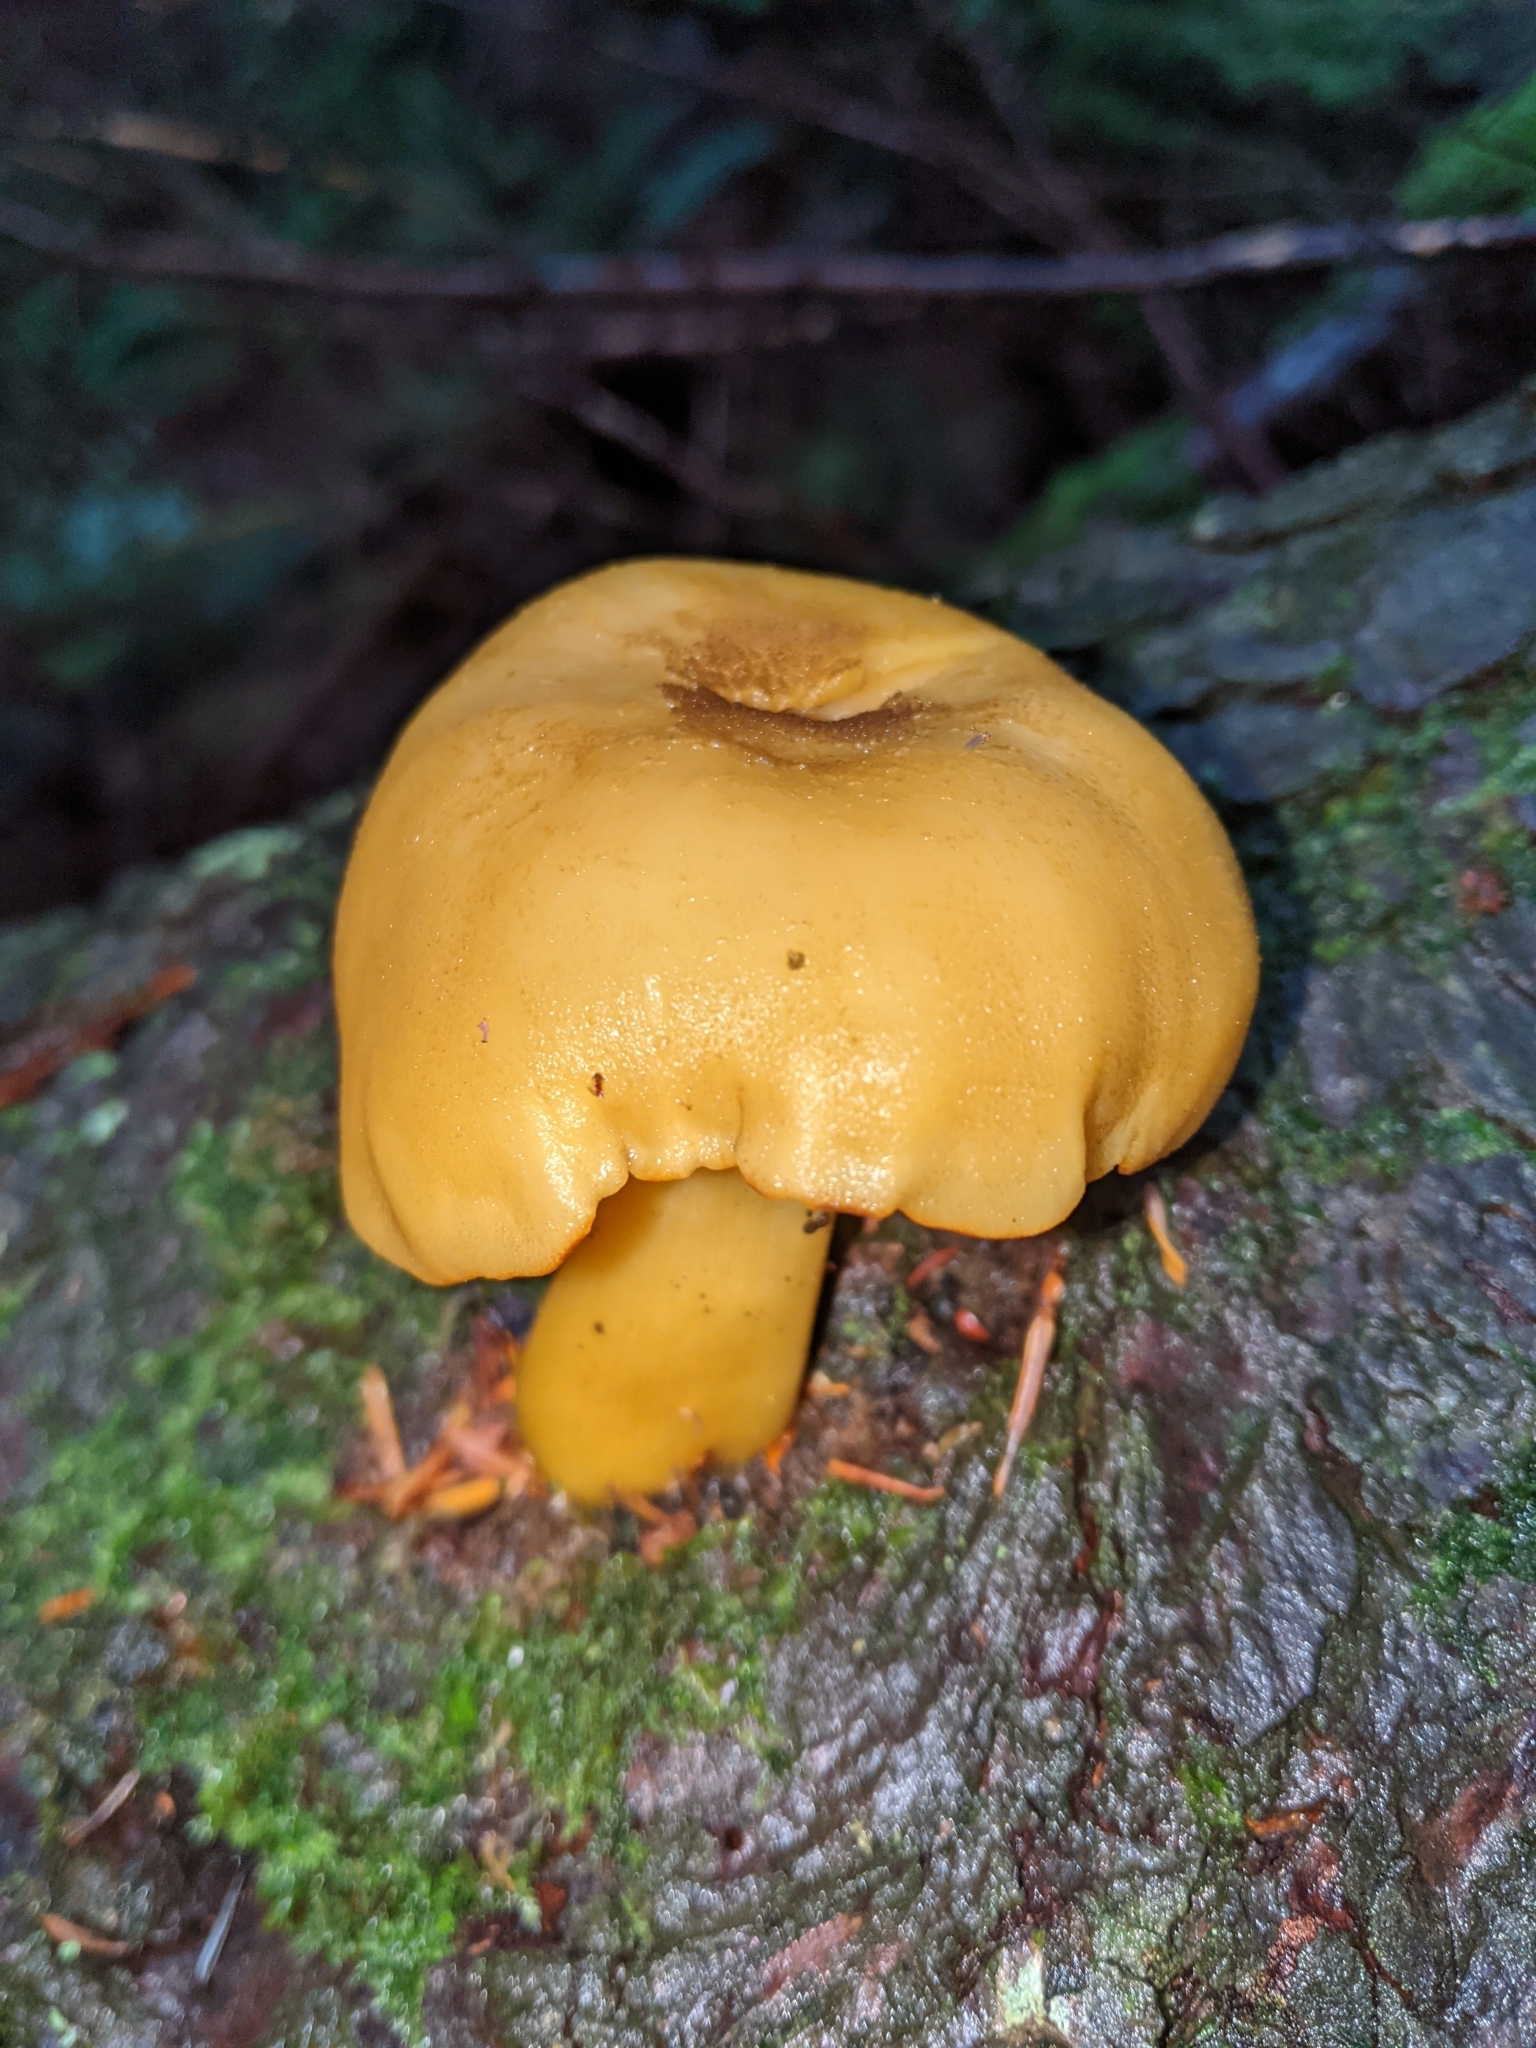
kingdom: Fungi
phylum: Basidiomycota
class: Agaricomycetes
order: Agaricales
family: Tricholomataceae
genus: Tricholomopsis
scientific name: Tricholomopsis decora
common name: Prunes and custard
